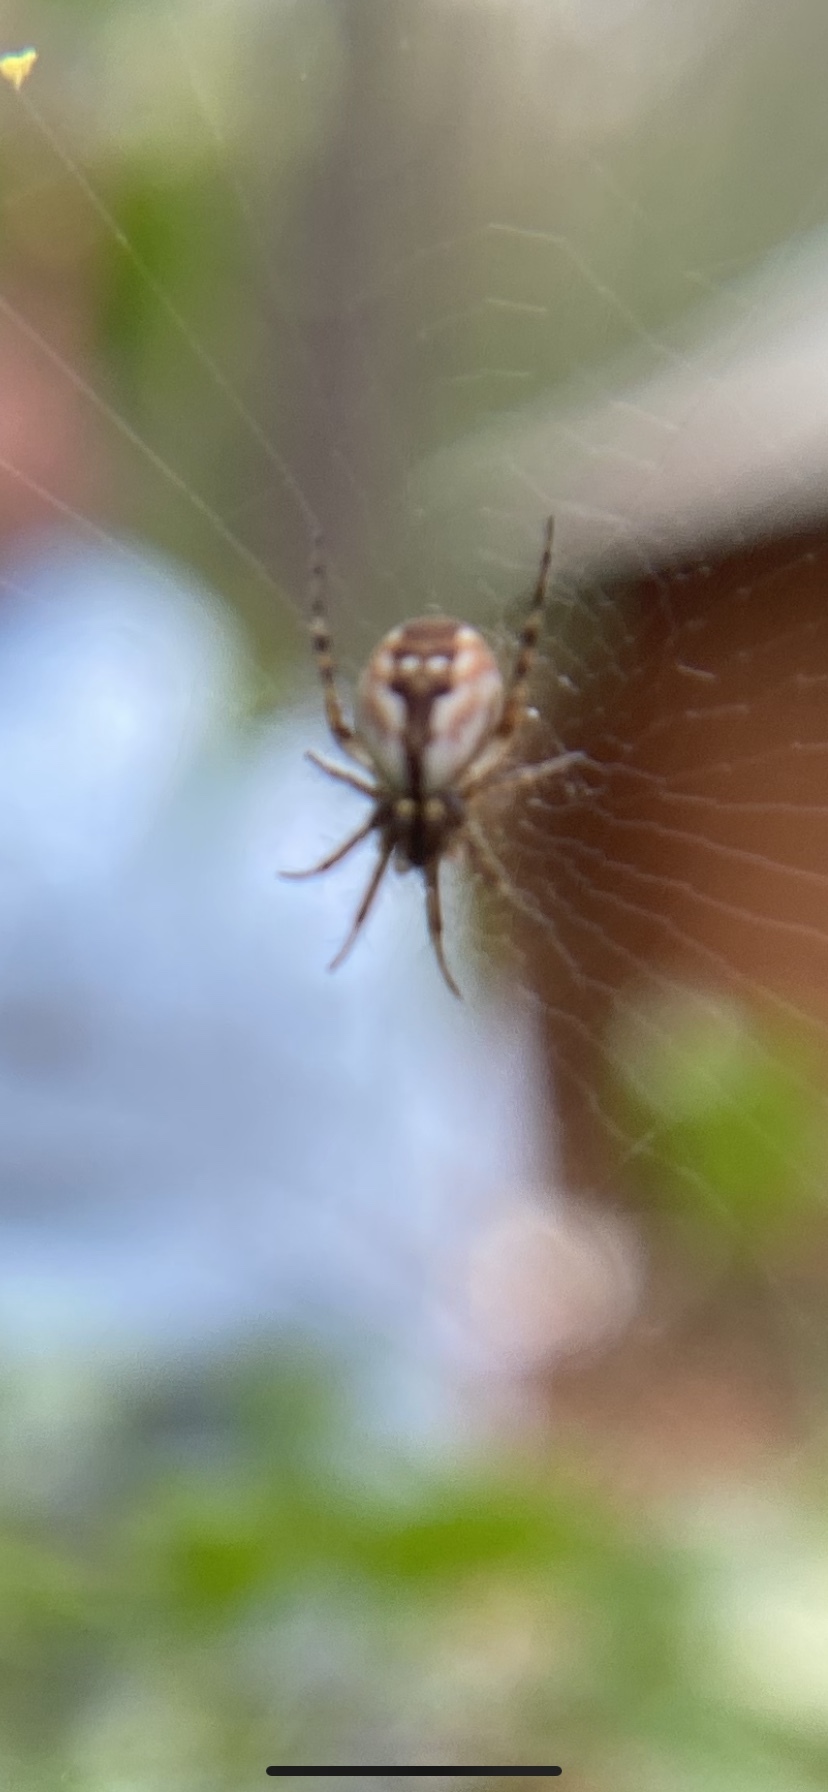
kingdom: Animalia
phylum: Arthropoda
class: Arachnida
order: Araneae
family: Araneidae
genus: Mangora
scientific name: Mangora placida
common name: Tuft-legged orbweaver
